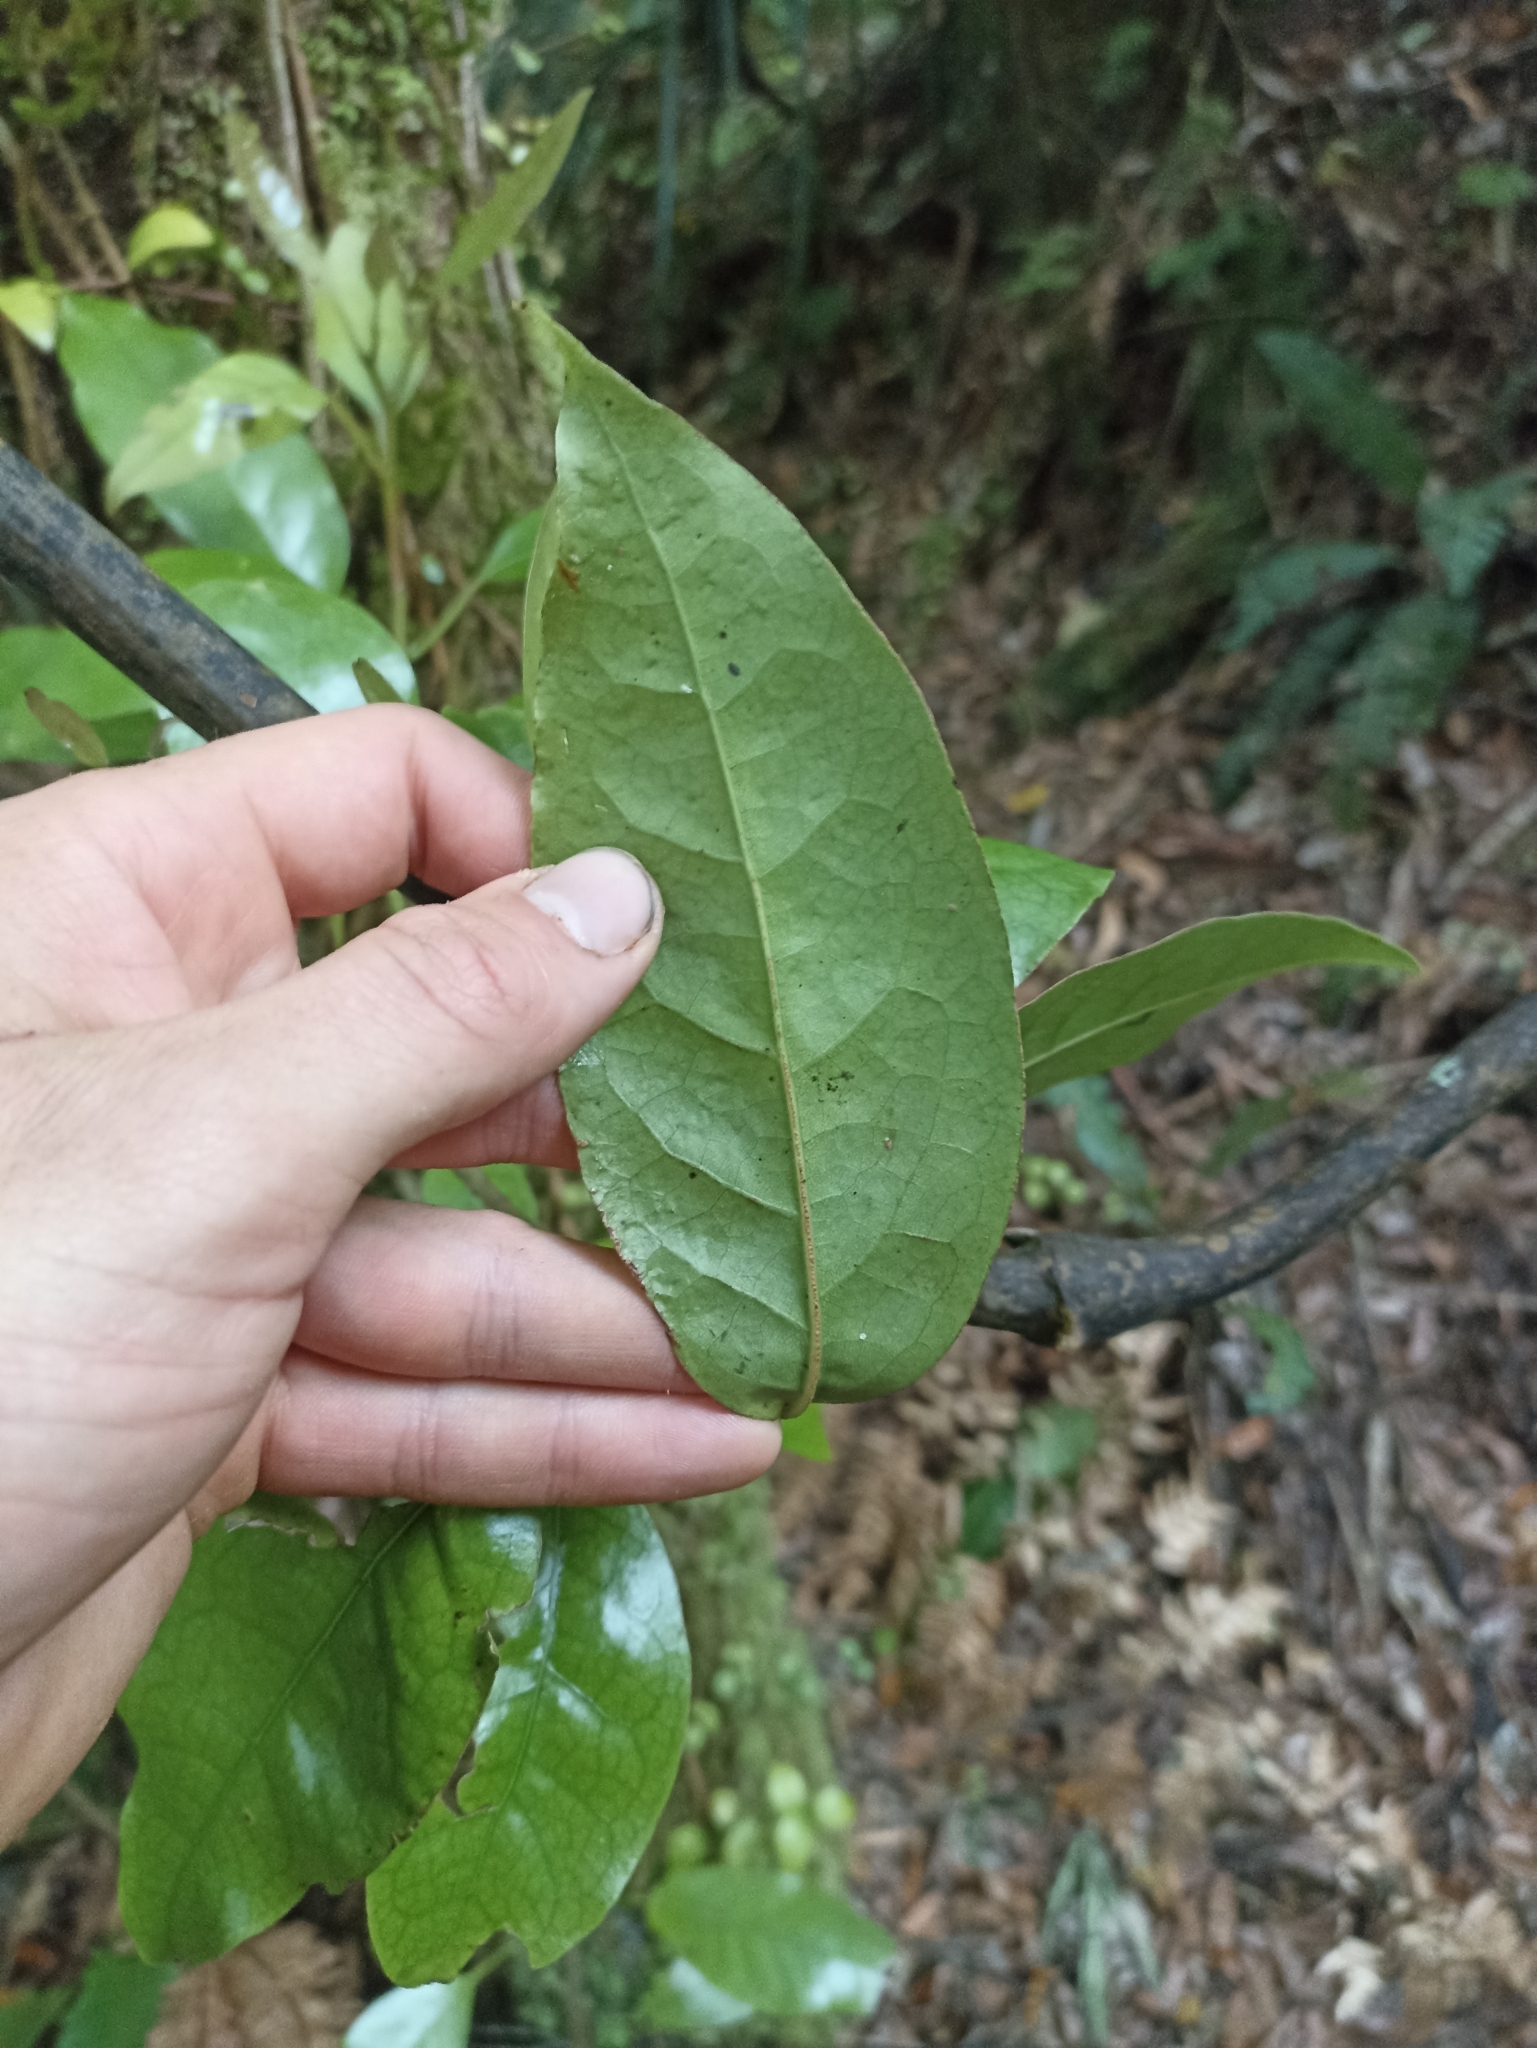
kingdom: Plantae
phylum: Tracheophyta
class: Magnoliopsida
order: Laurales
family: Lauraceae
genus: Litsea
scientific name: Litsea calicaris
